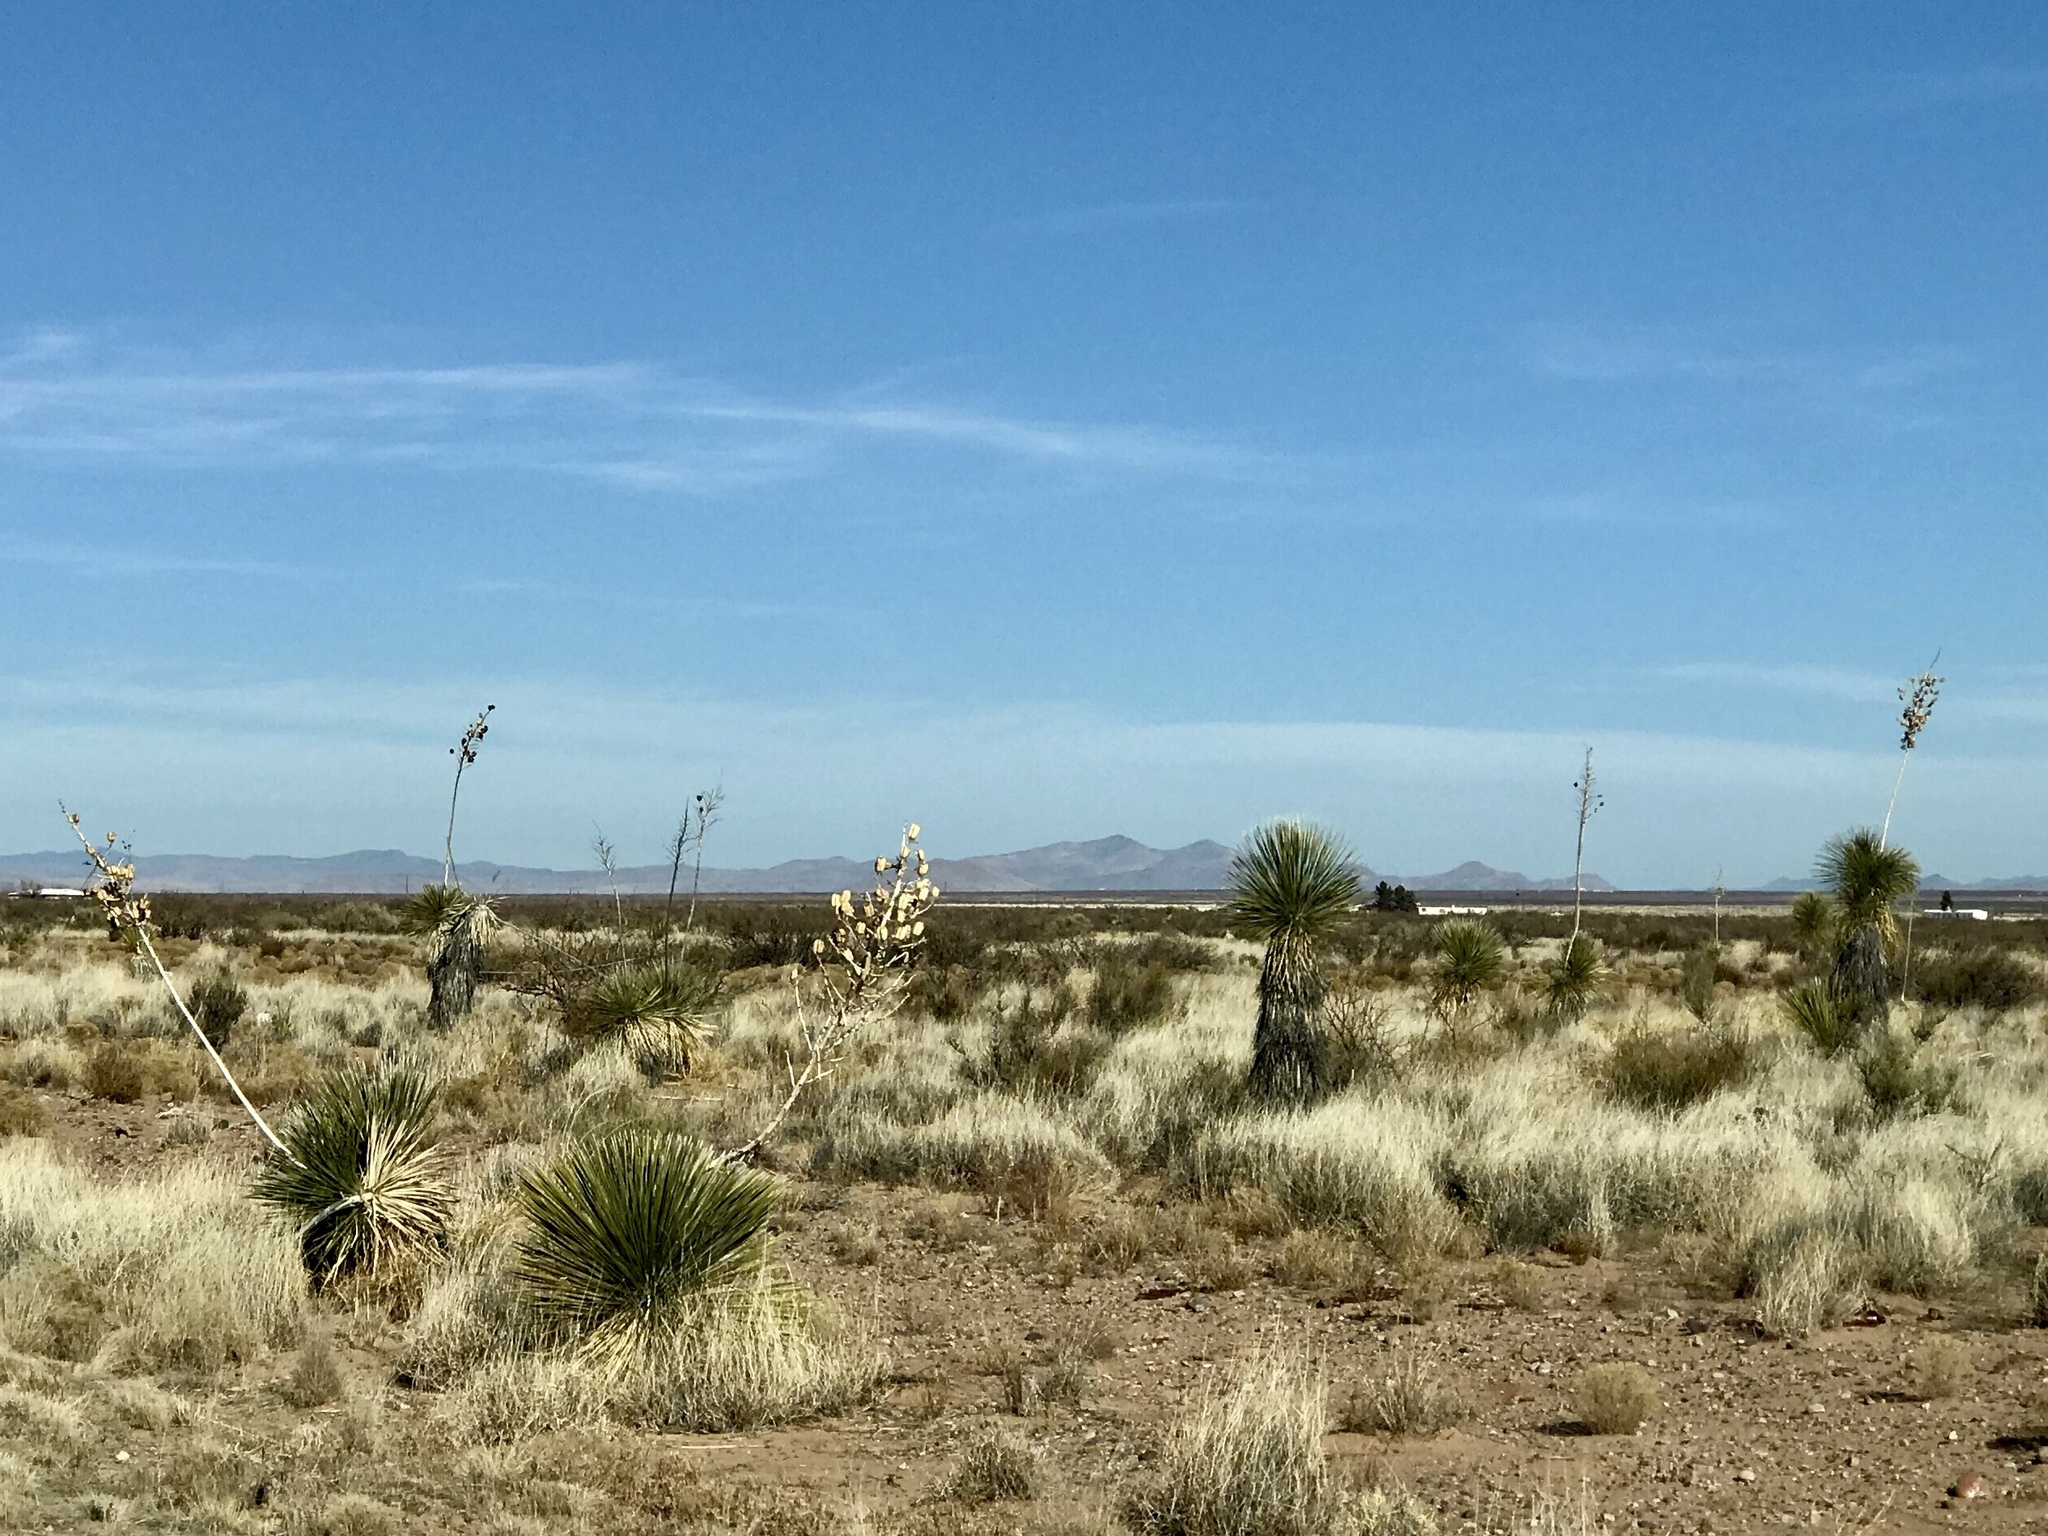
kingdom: Plantae
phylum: Tracheophyta
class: Liliopsida
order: Asparagales
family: Asparagaceae
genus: Yucca
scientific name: Yucca elata
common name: Palmella
